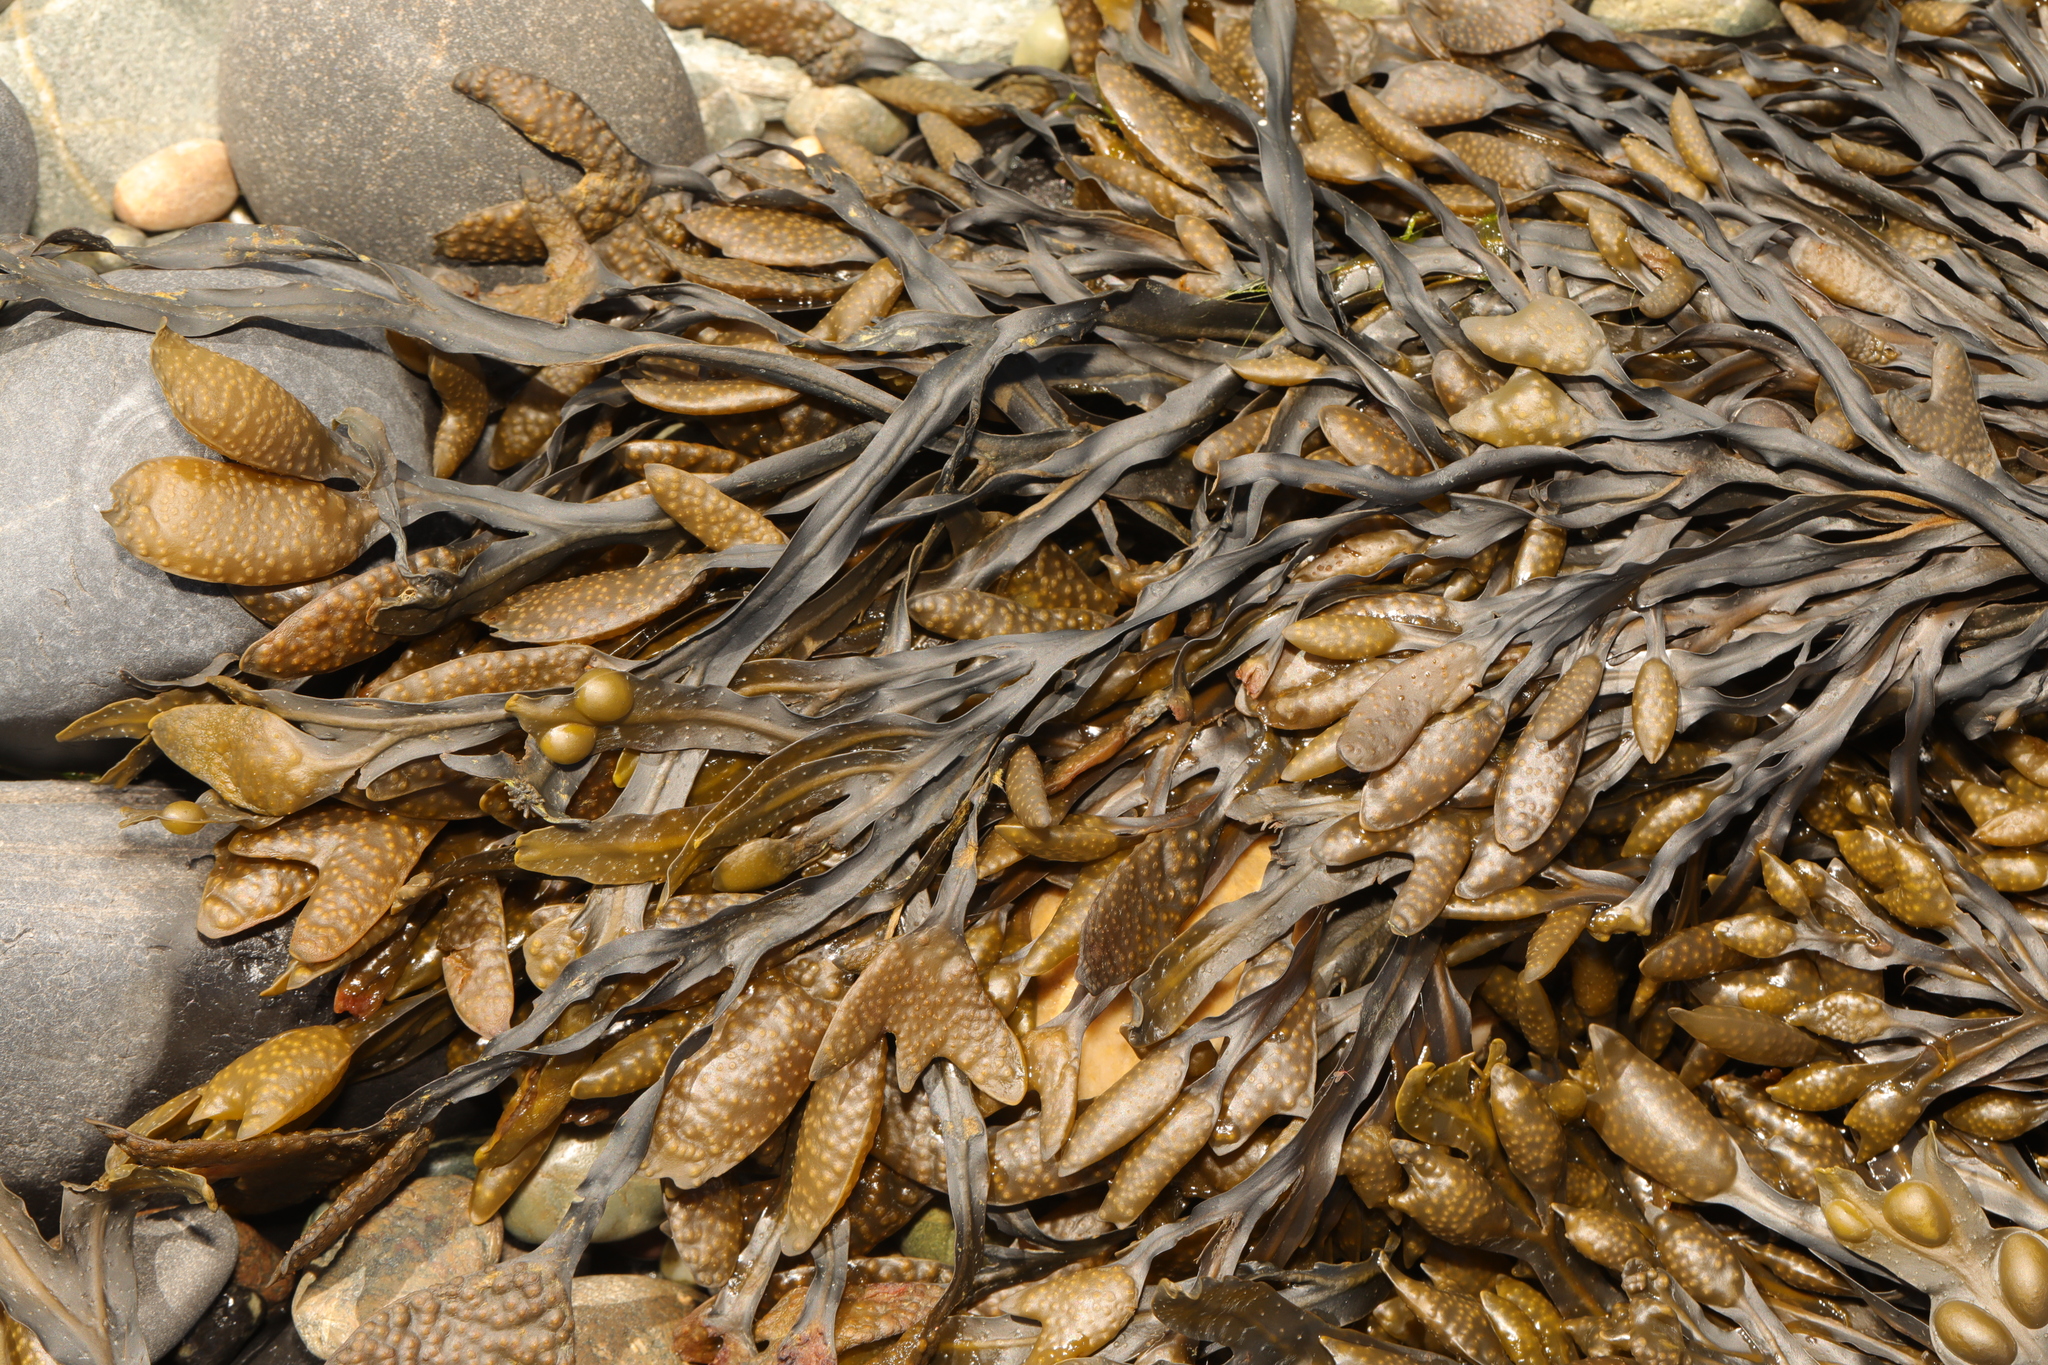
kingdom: Chromista
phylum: Ochrophyta
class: Phaeophyceae
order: Fucales
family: Fucaceae
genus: Fucus
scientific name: Fucus vesiculosus
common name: Bladder wrack
